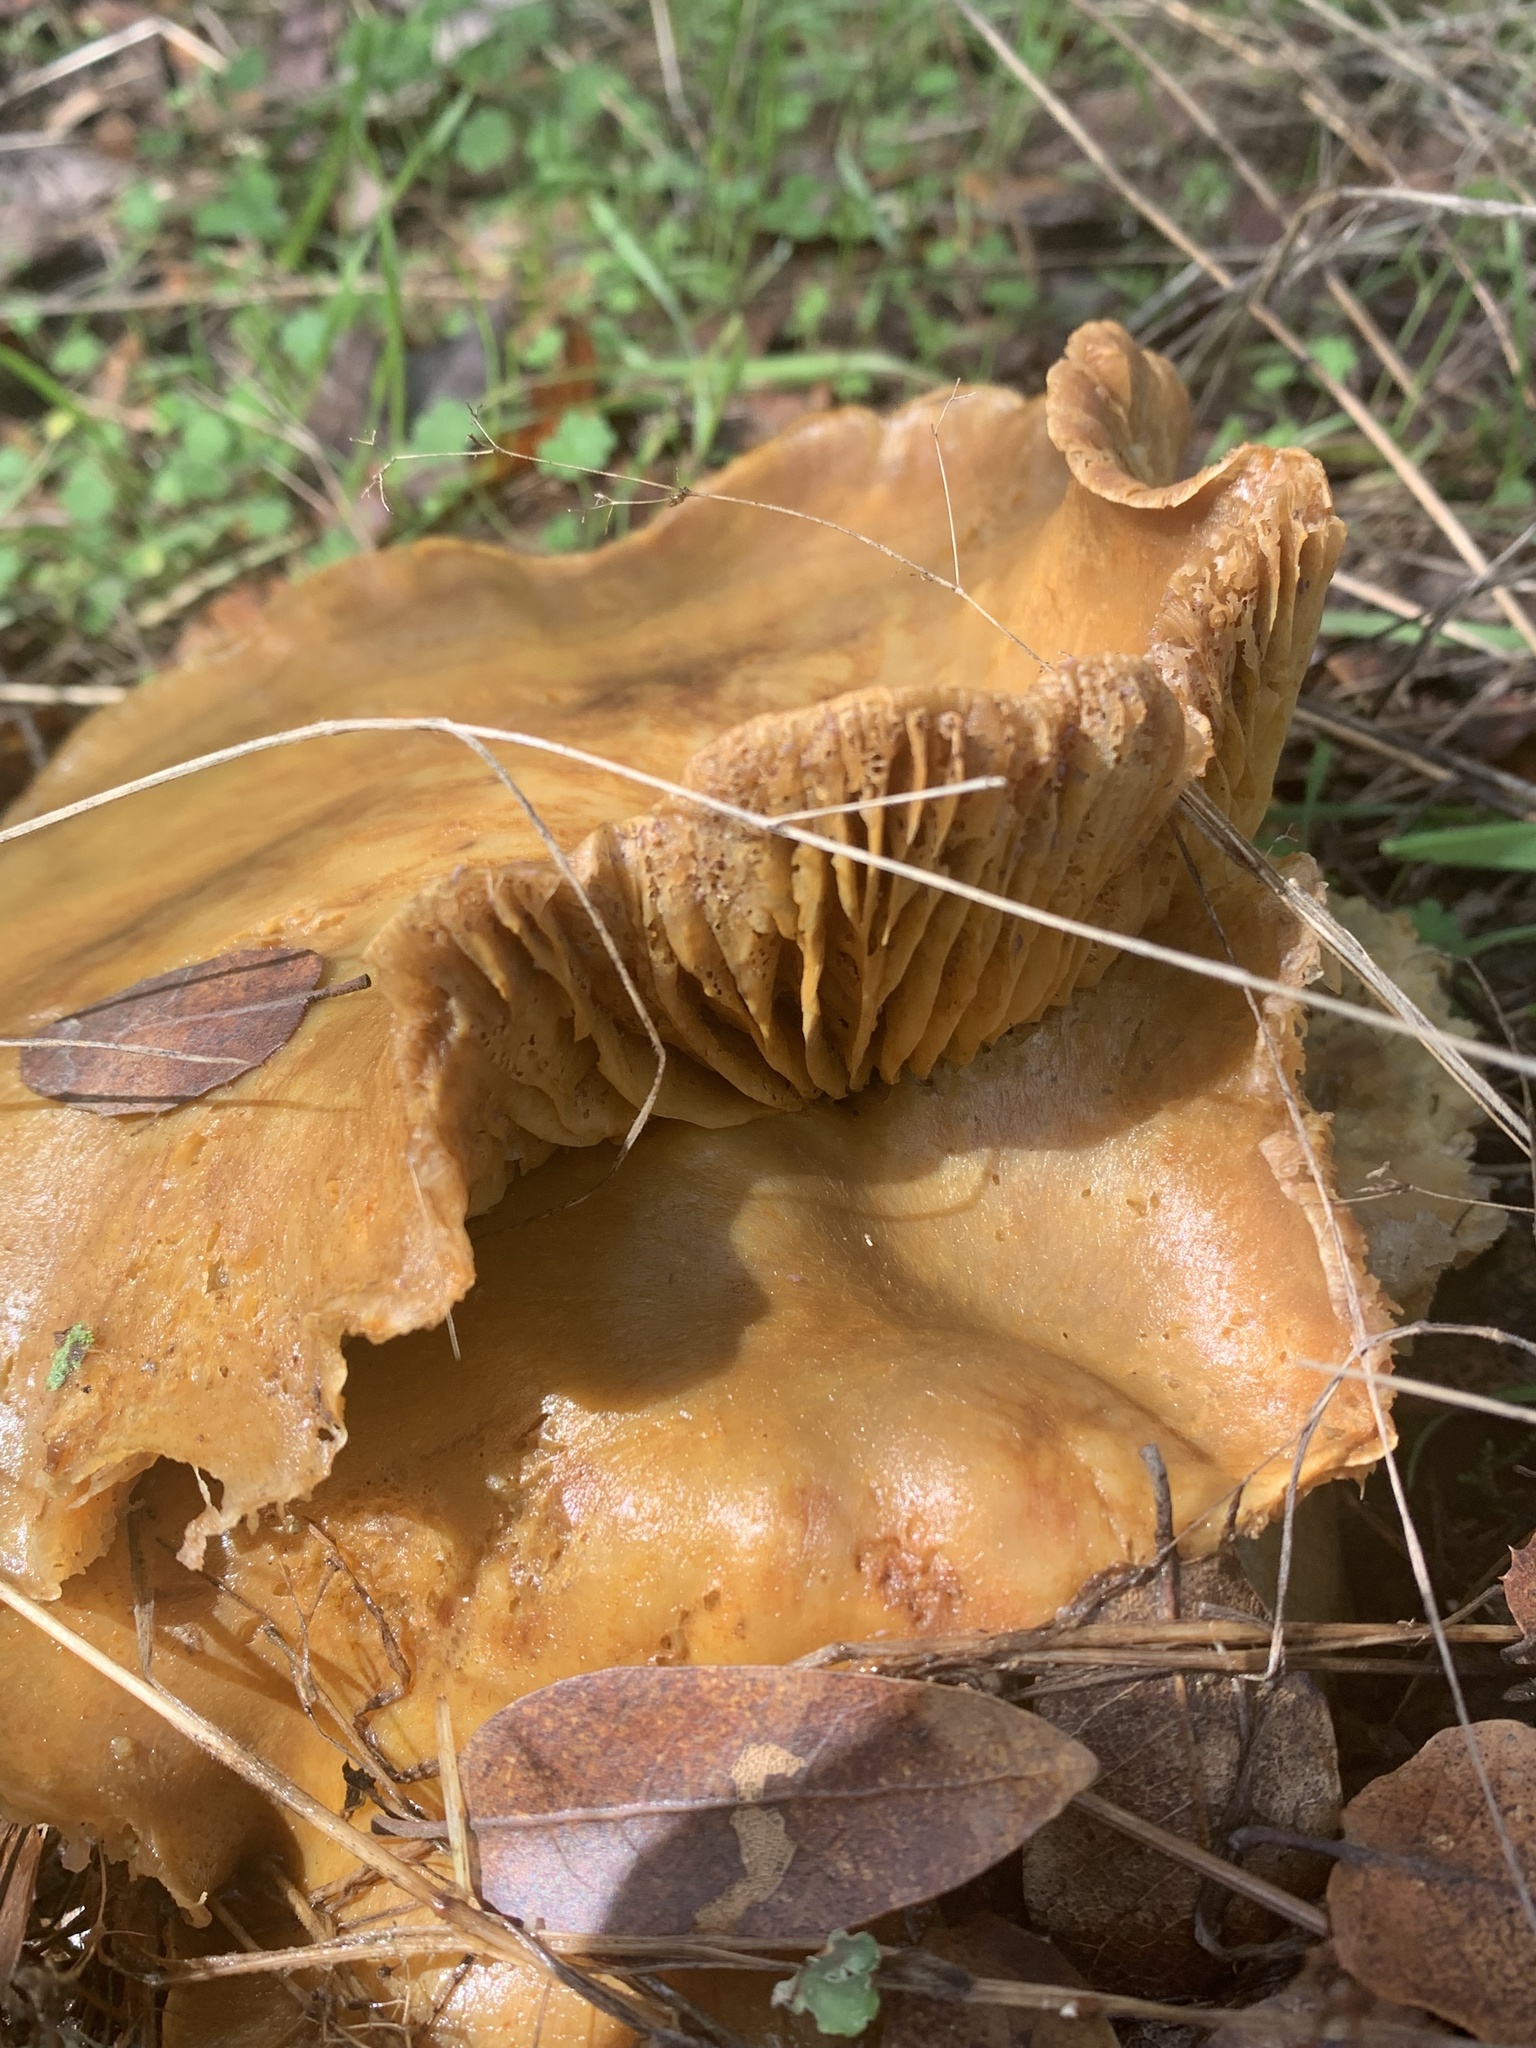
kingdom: Fungi
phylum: Basidiomycota
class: Agaricomycetes
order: Agaricales
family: Omphalotaceae
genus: Omphalotus
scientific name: Omphalotus olivascens
